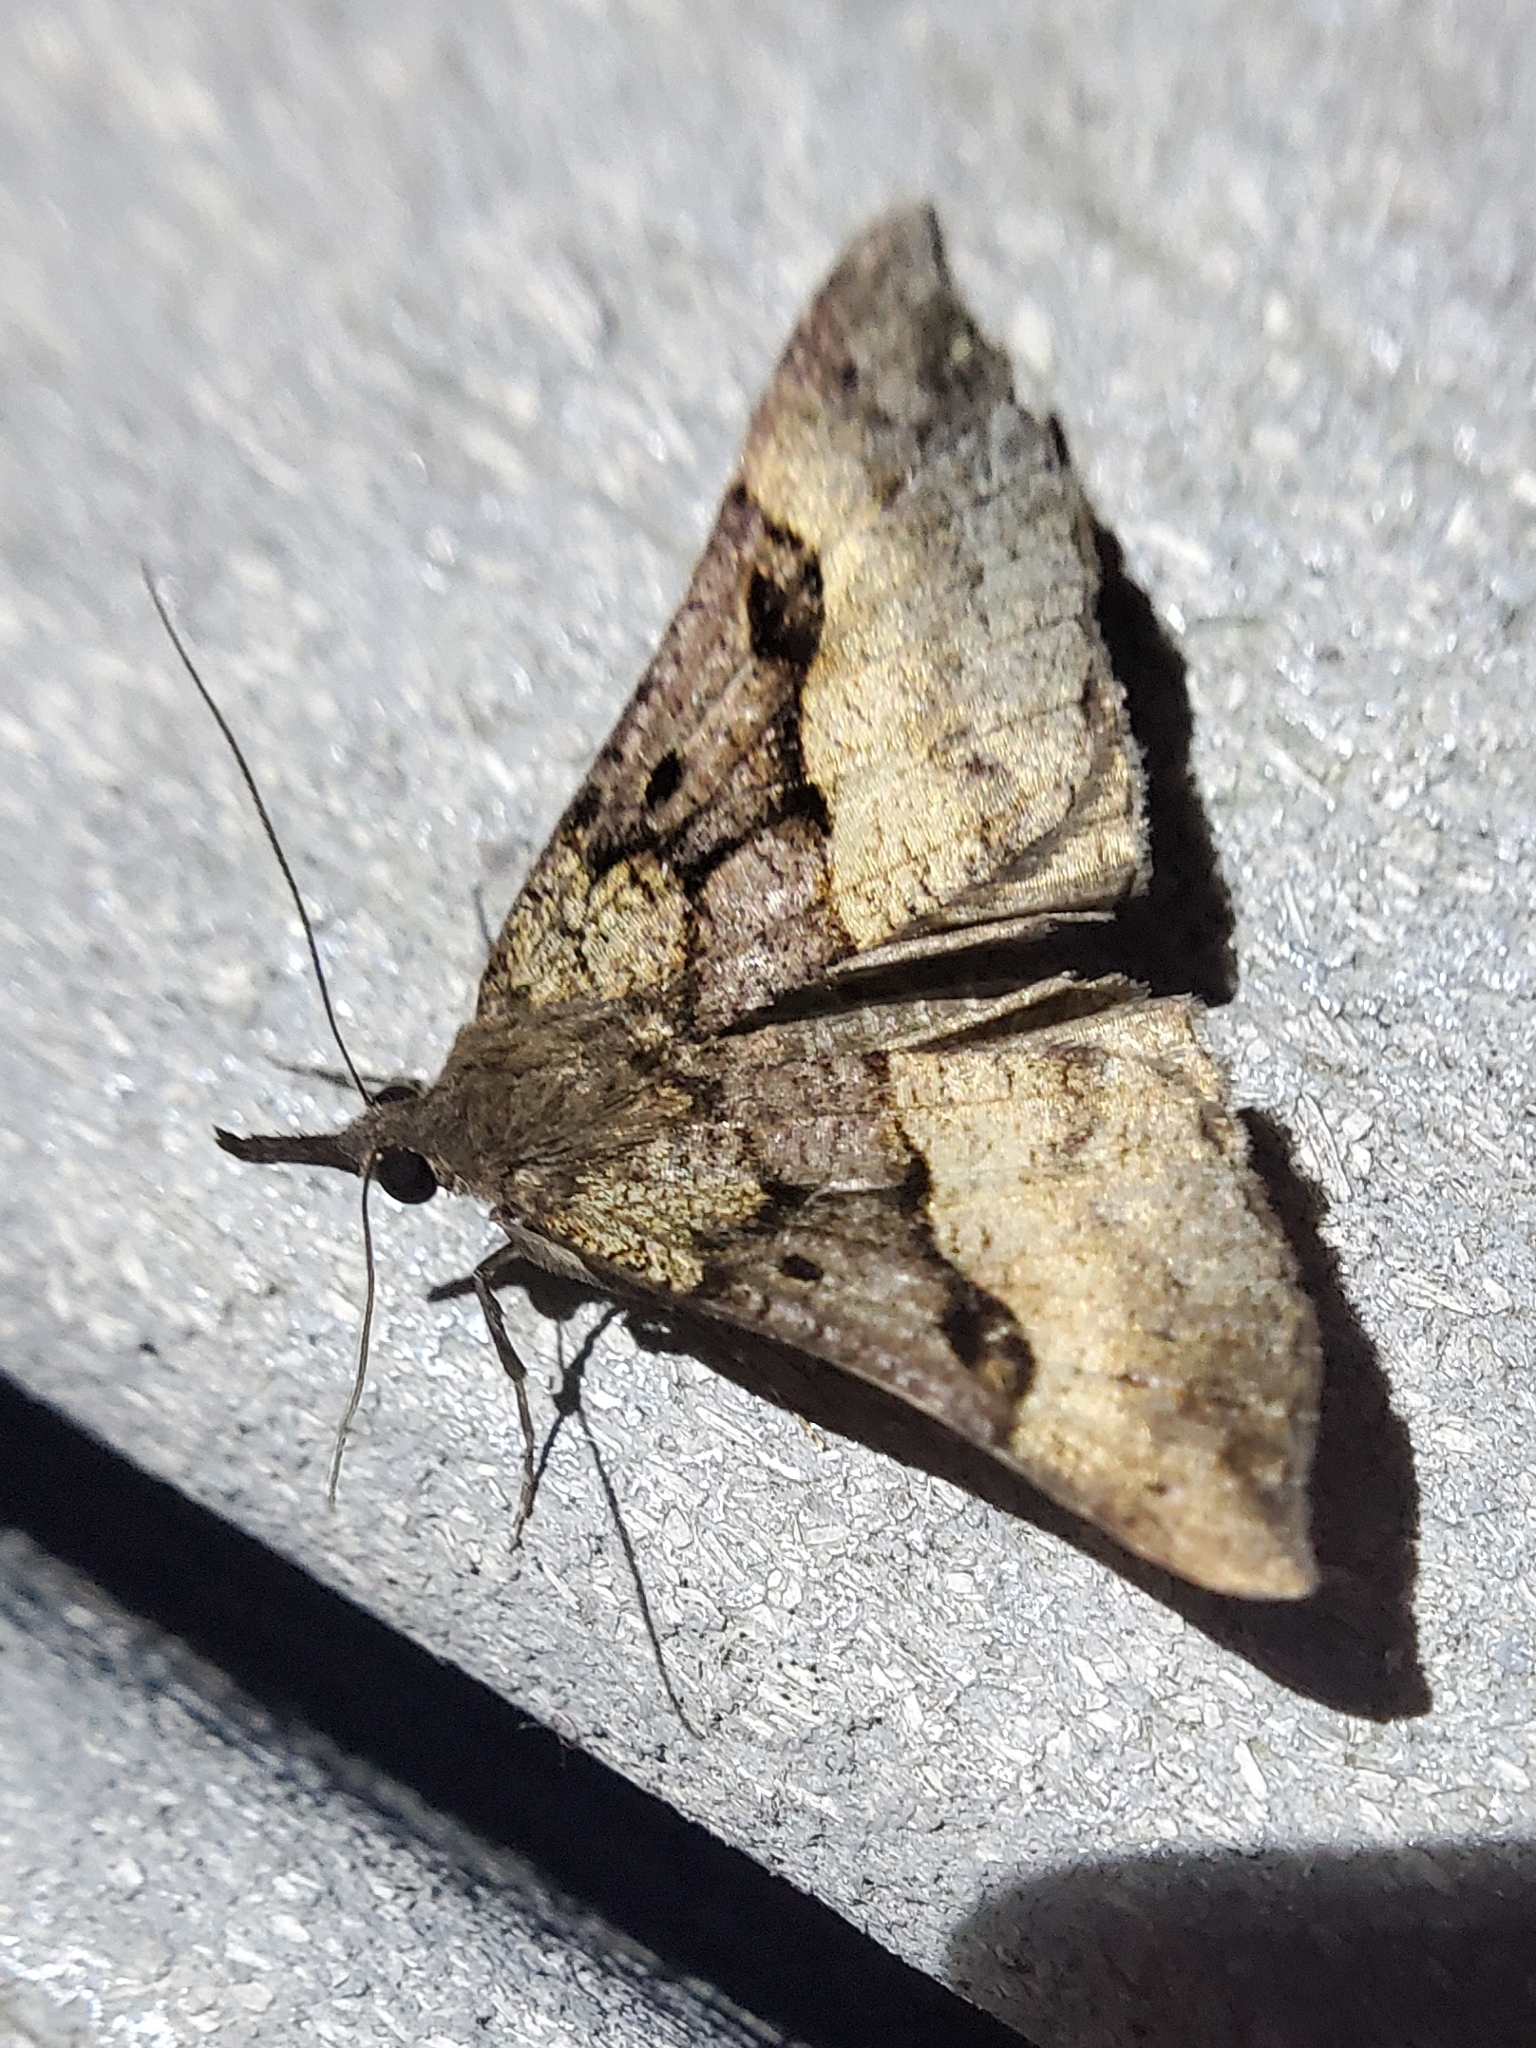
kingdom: Animalia
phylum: Arthropoda
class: Insecta
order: Lepidoptera
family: Erebidae
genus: Hypena
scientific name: Hypena edictalis
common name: Large snout
